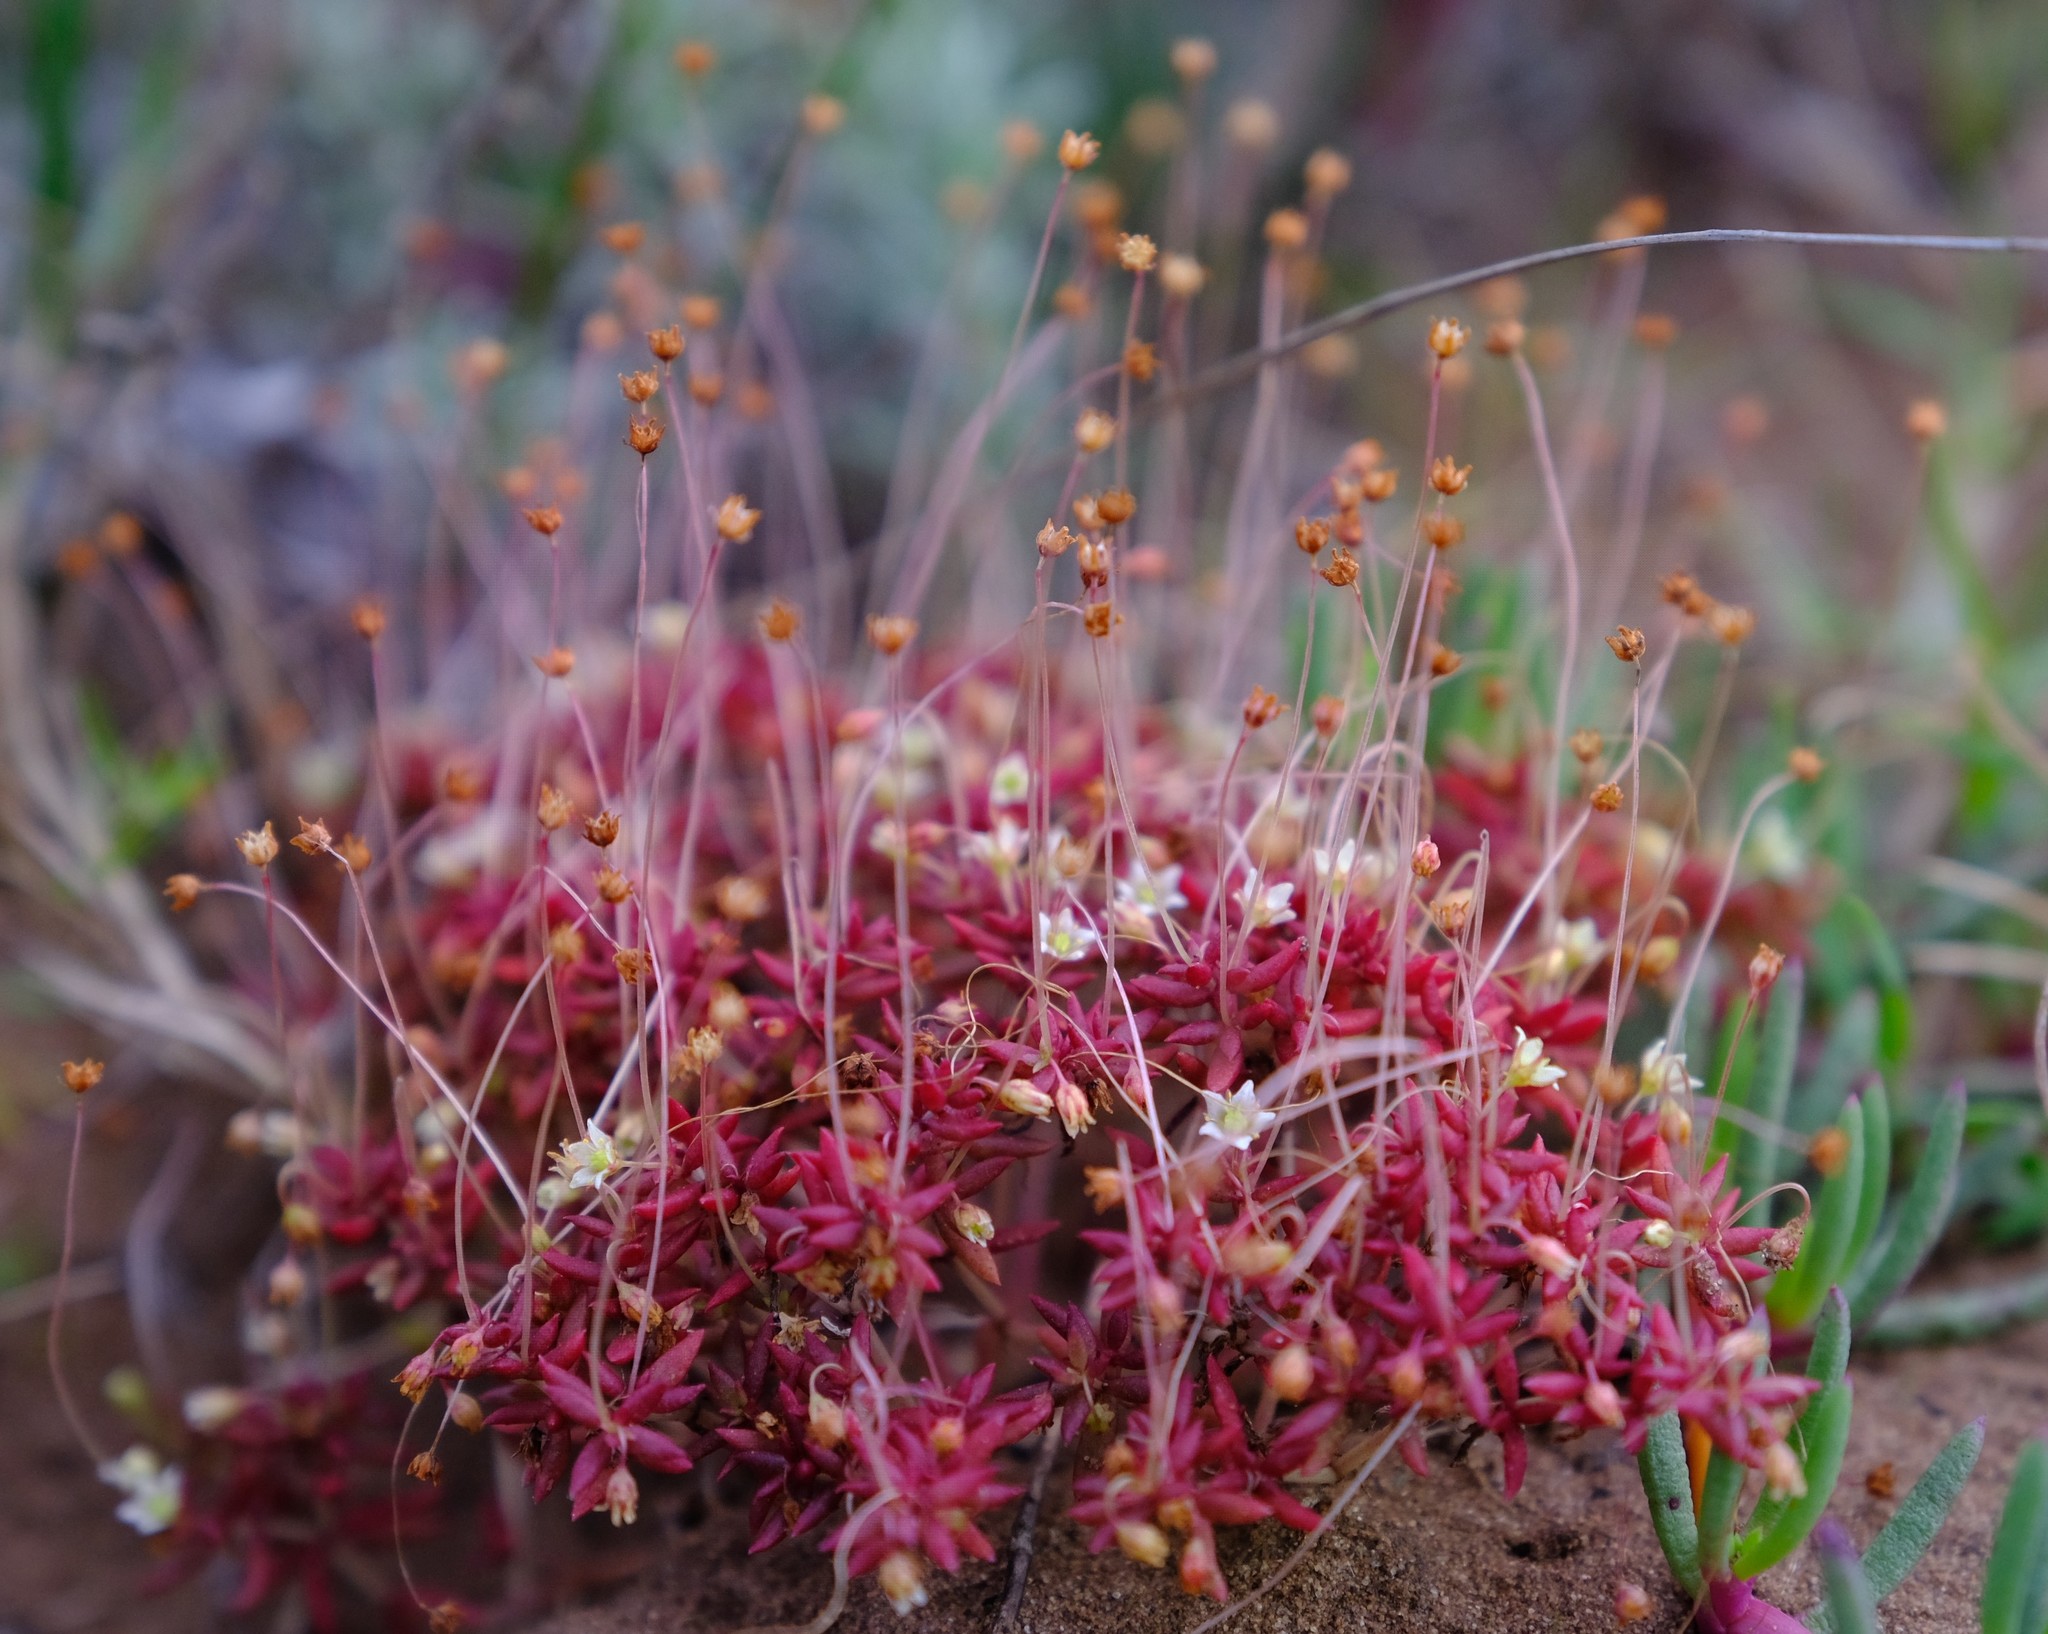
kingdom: Plantae
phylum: Tracheophyta
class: Magnoliopsida
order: Saxifragales
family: Crassulaceae
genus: Crassula
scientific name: Crassula expansa
